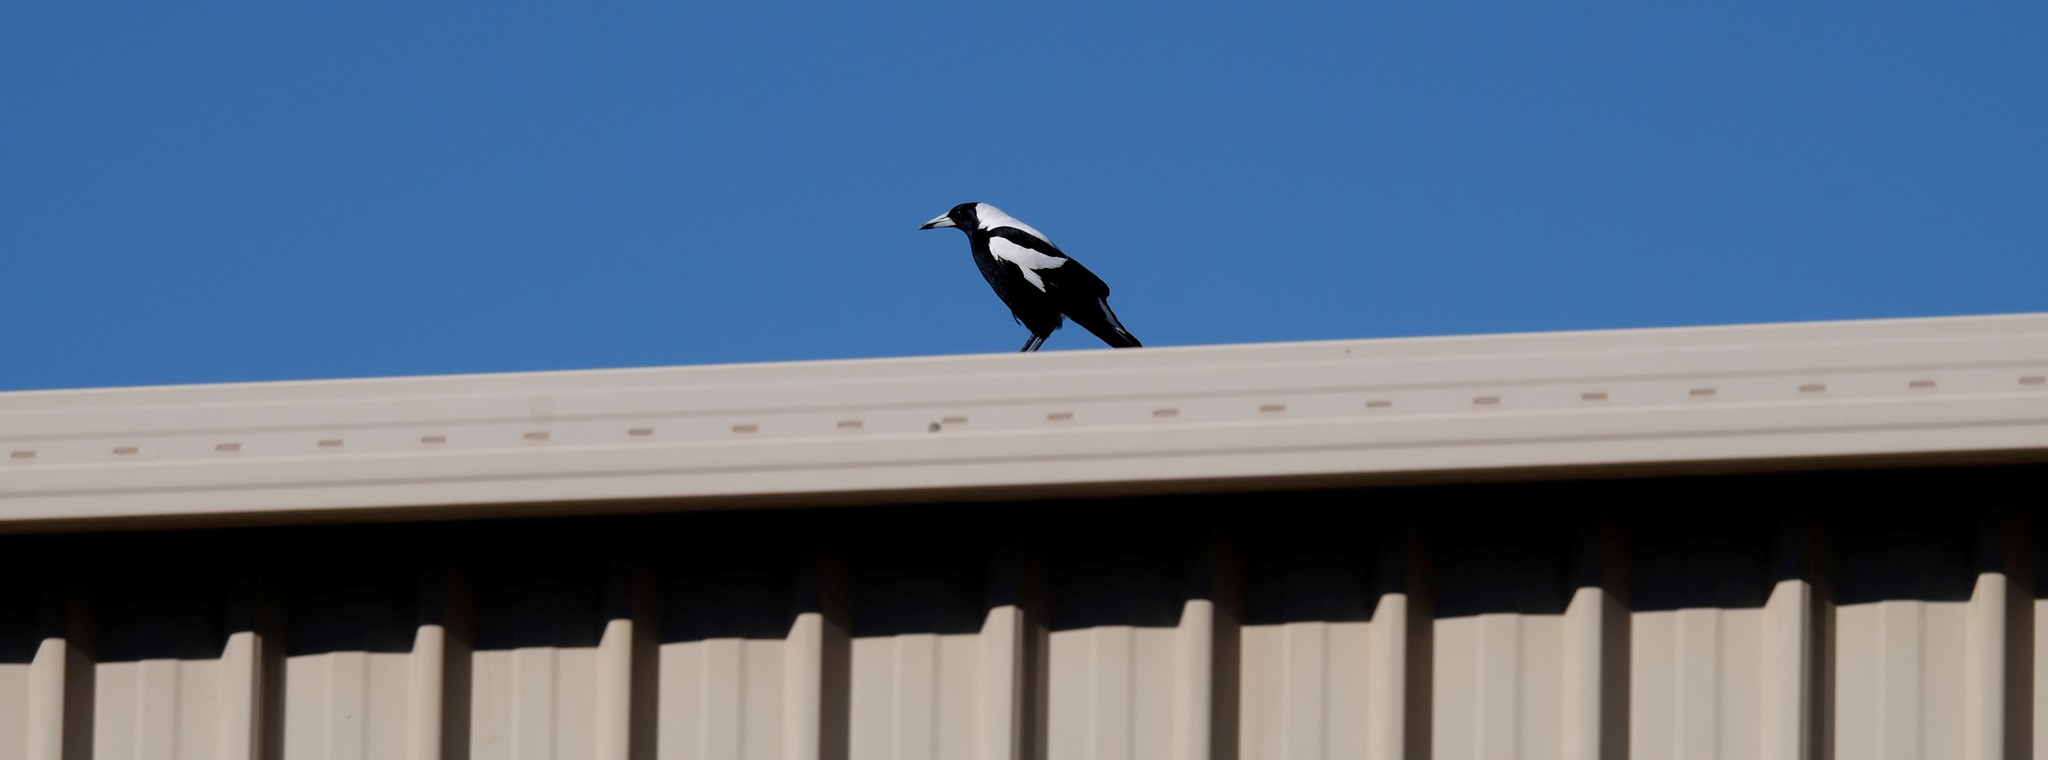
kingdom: Animalia
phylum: Chordata
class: Aves
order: Passeriformes
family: Cracticidae
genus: Gymnorhina
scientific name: Gymnorhina tibicen
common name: Australian magpie
